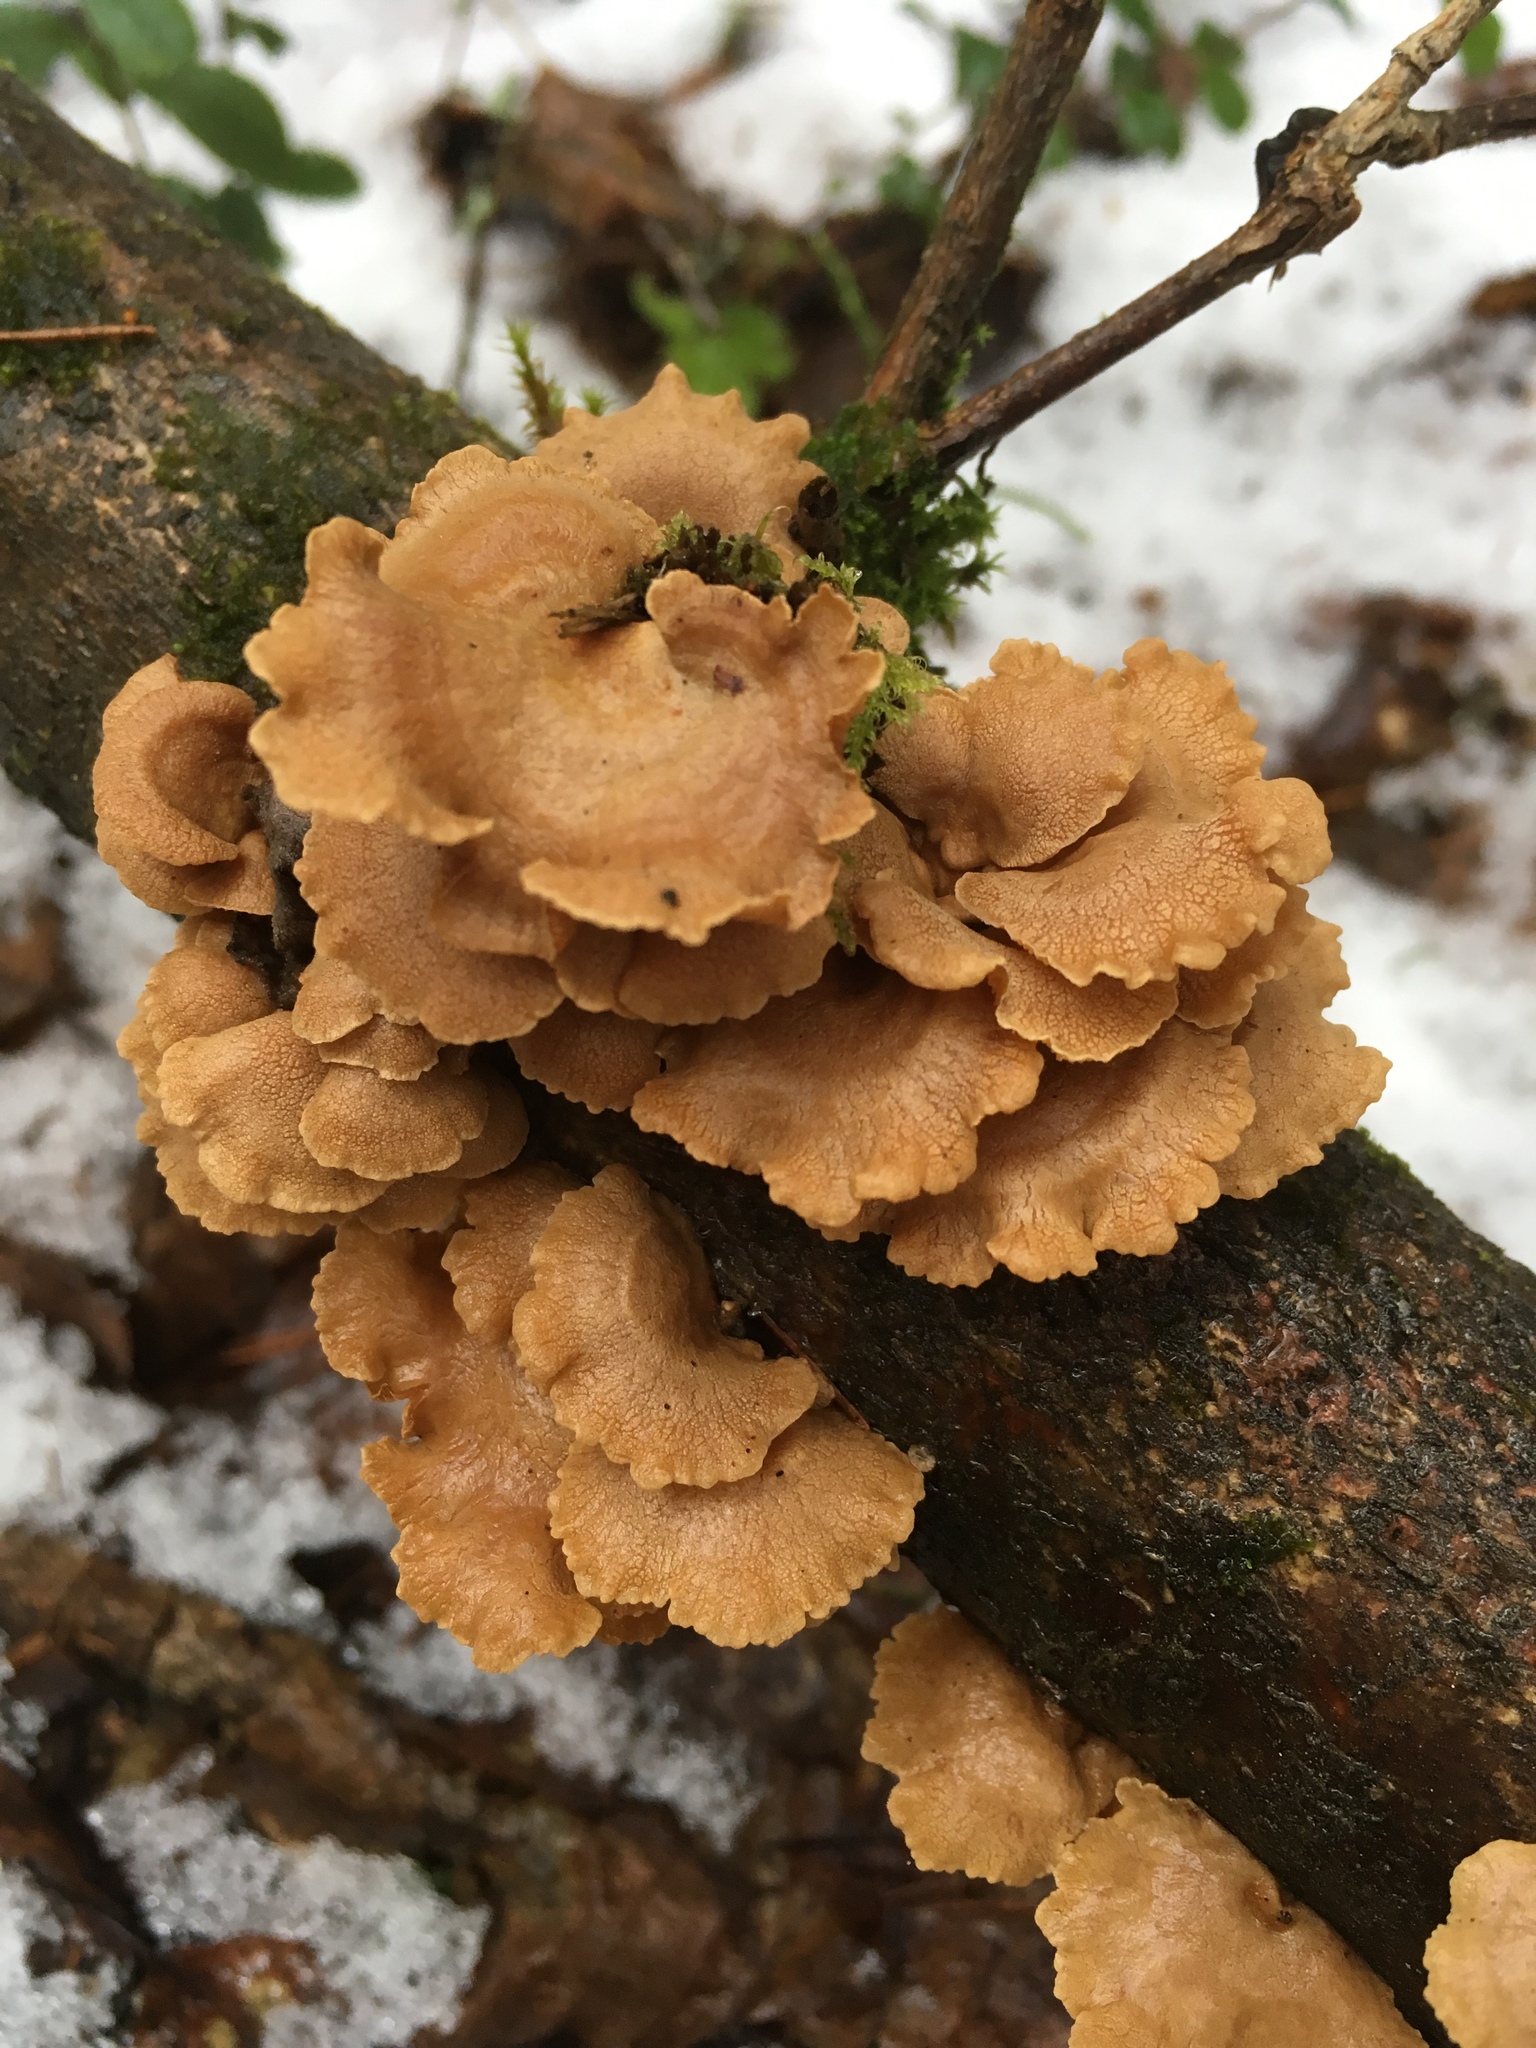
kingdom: Fungi
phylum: Basidiomycota
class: Agaricomycetes
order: Agaricales
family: Mycenaceae
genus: Panellus
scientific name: Panellus stipticus
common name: Bitter oysterling
